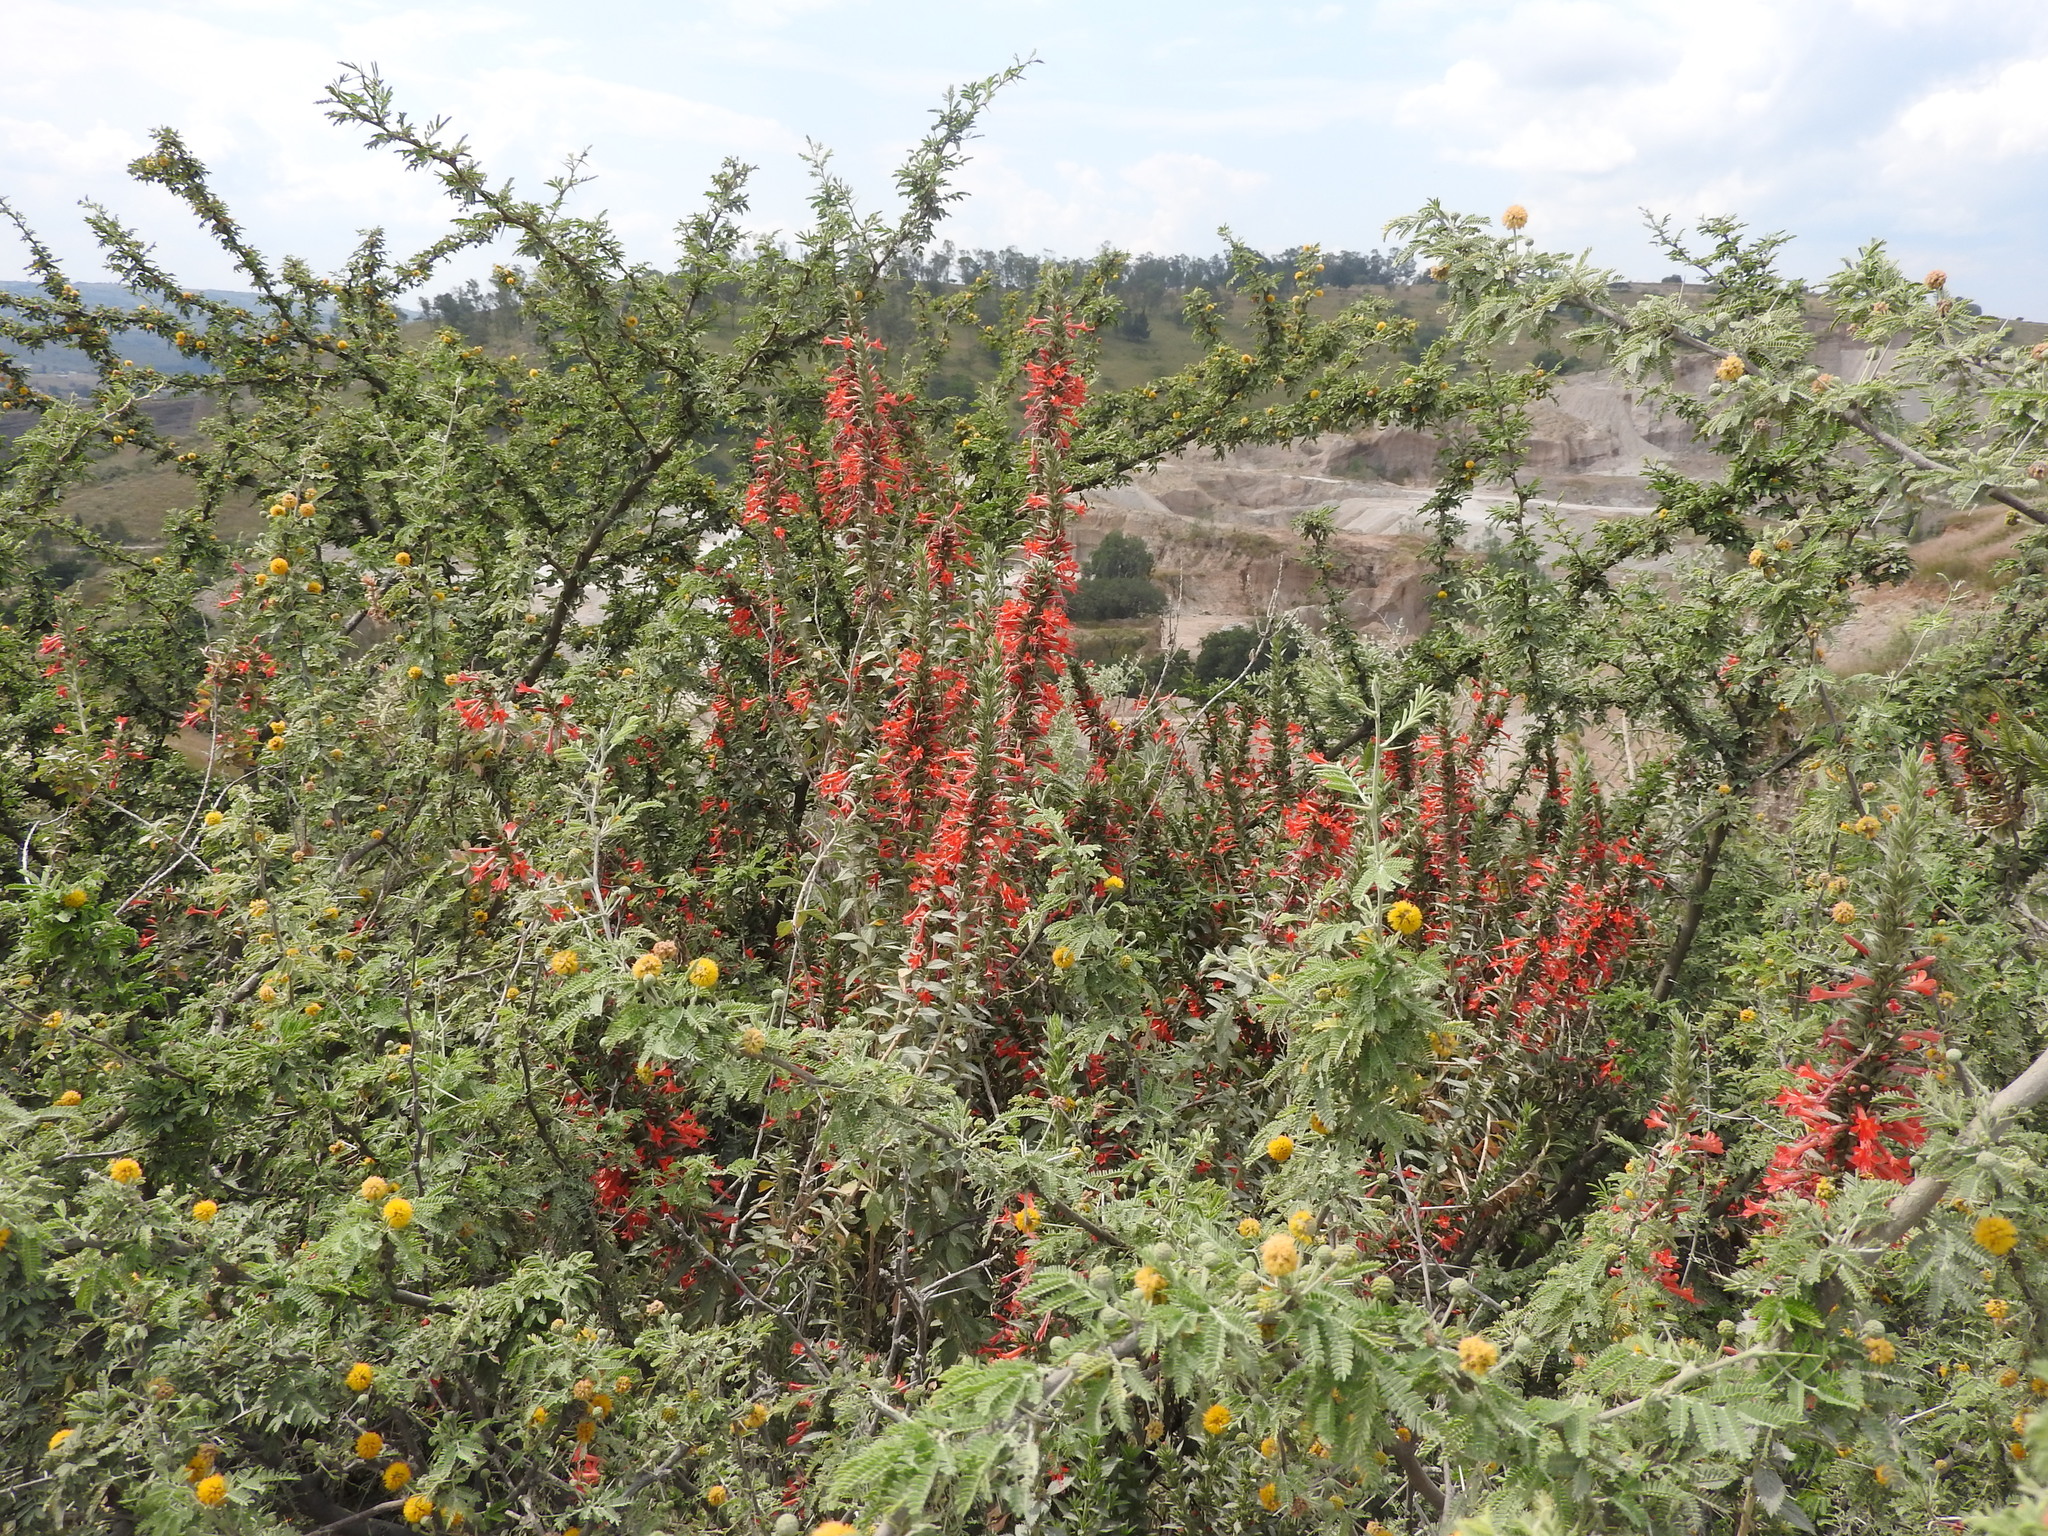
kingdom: Plantae
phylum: Tracheophyta
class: Magnoliopsida
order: Ericales
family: Polemoniaceae
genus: Loeselia
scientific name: Loeselia mexicana
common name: Mexican false calico
